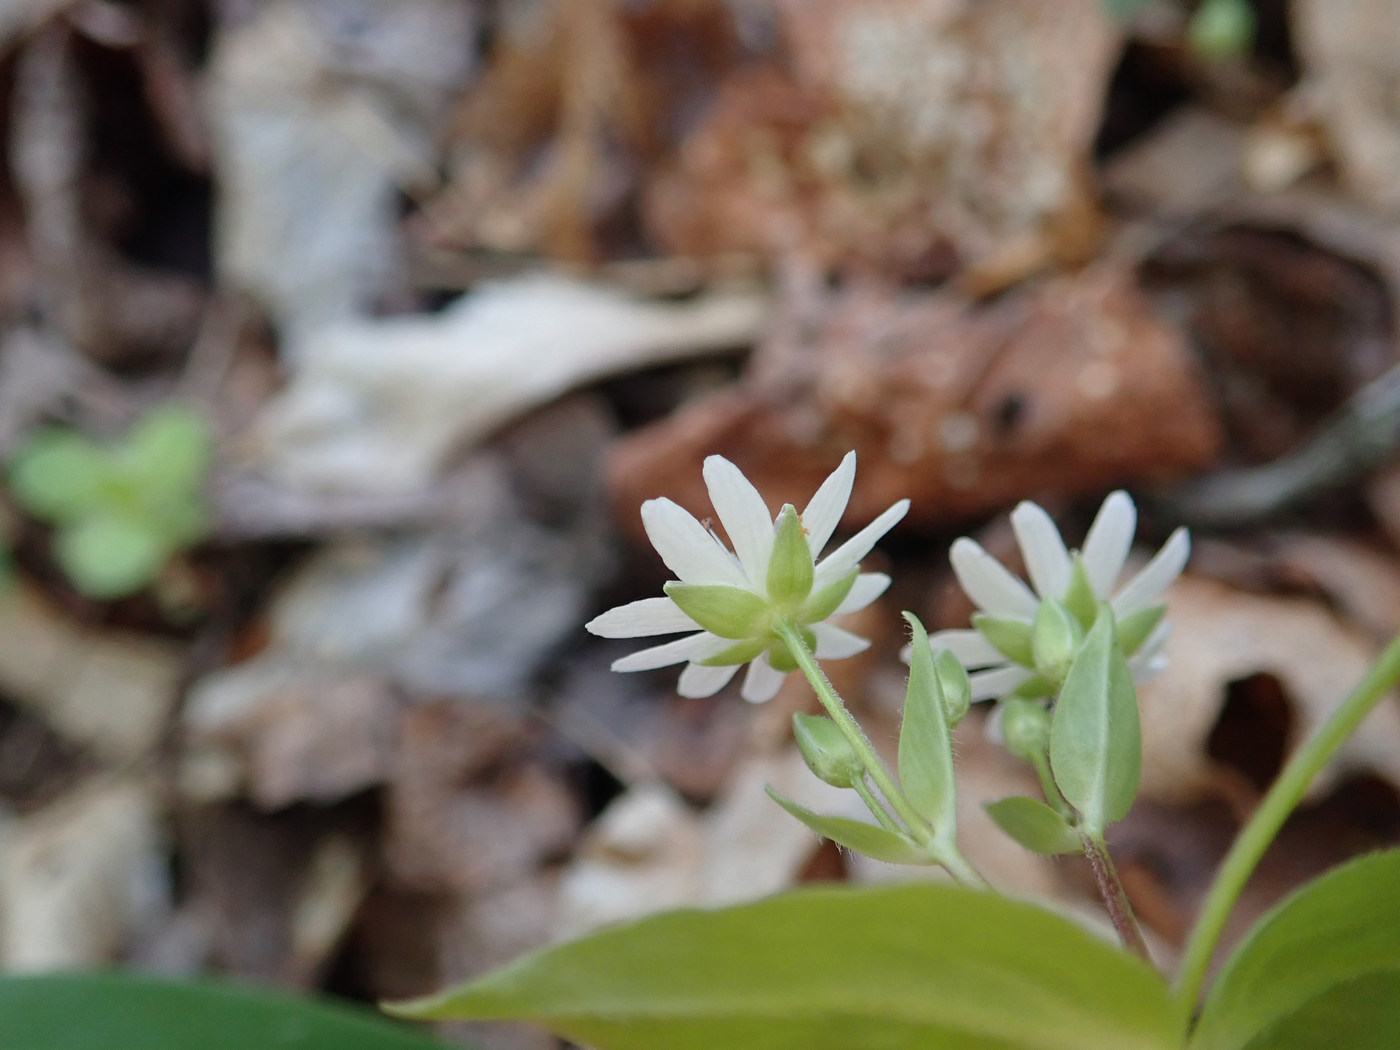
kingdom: Plantae
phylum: Tracheophyta
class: Magnoliopsida
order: Caryophyllales
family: Caryophyllaceae
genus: Stellaria
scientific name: Stellaria pubera
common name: Star chickweed
